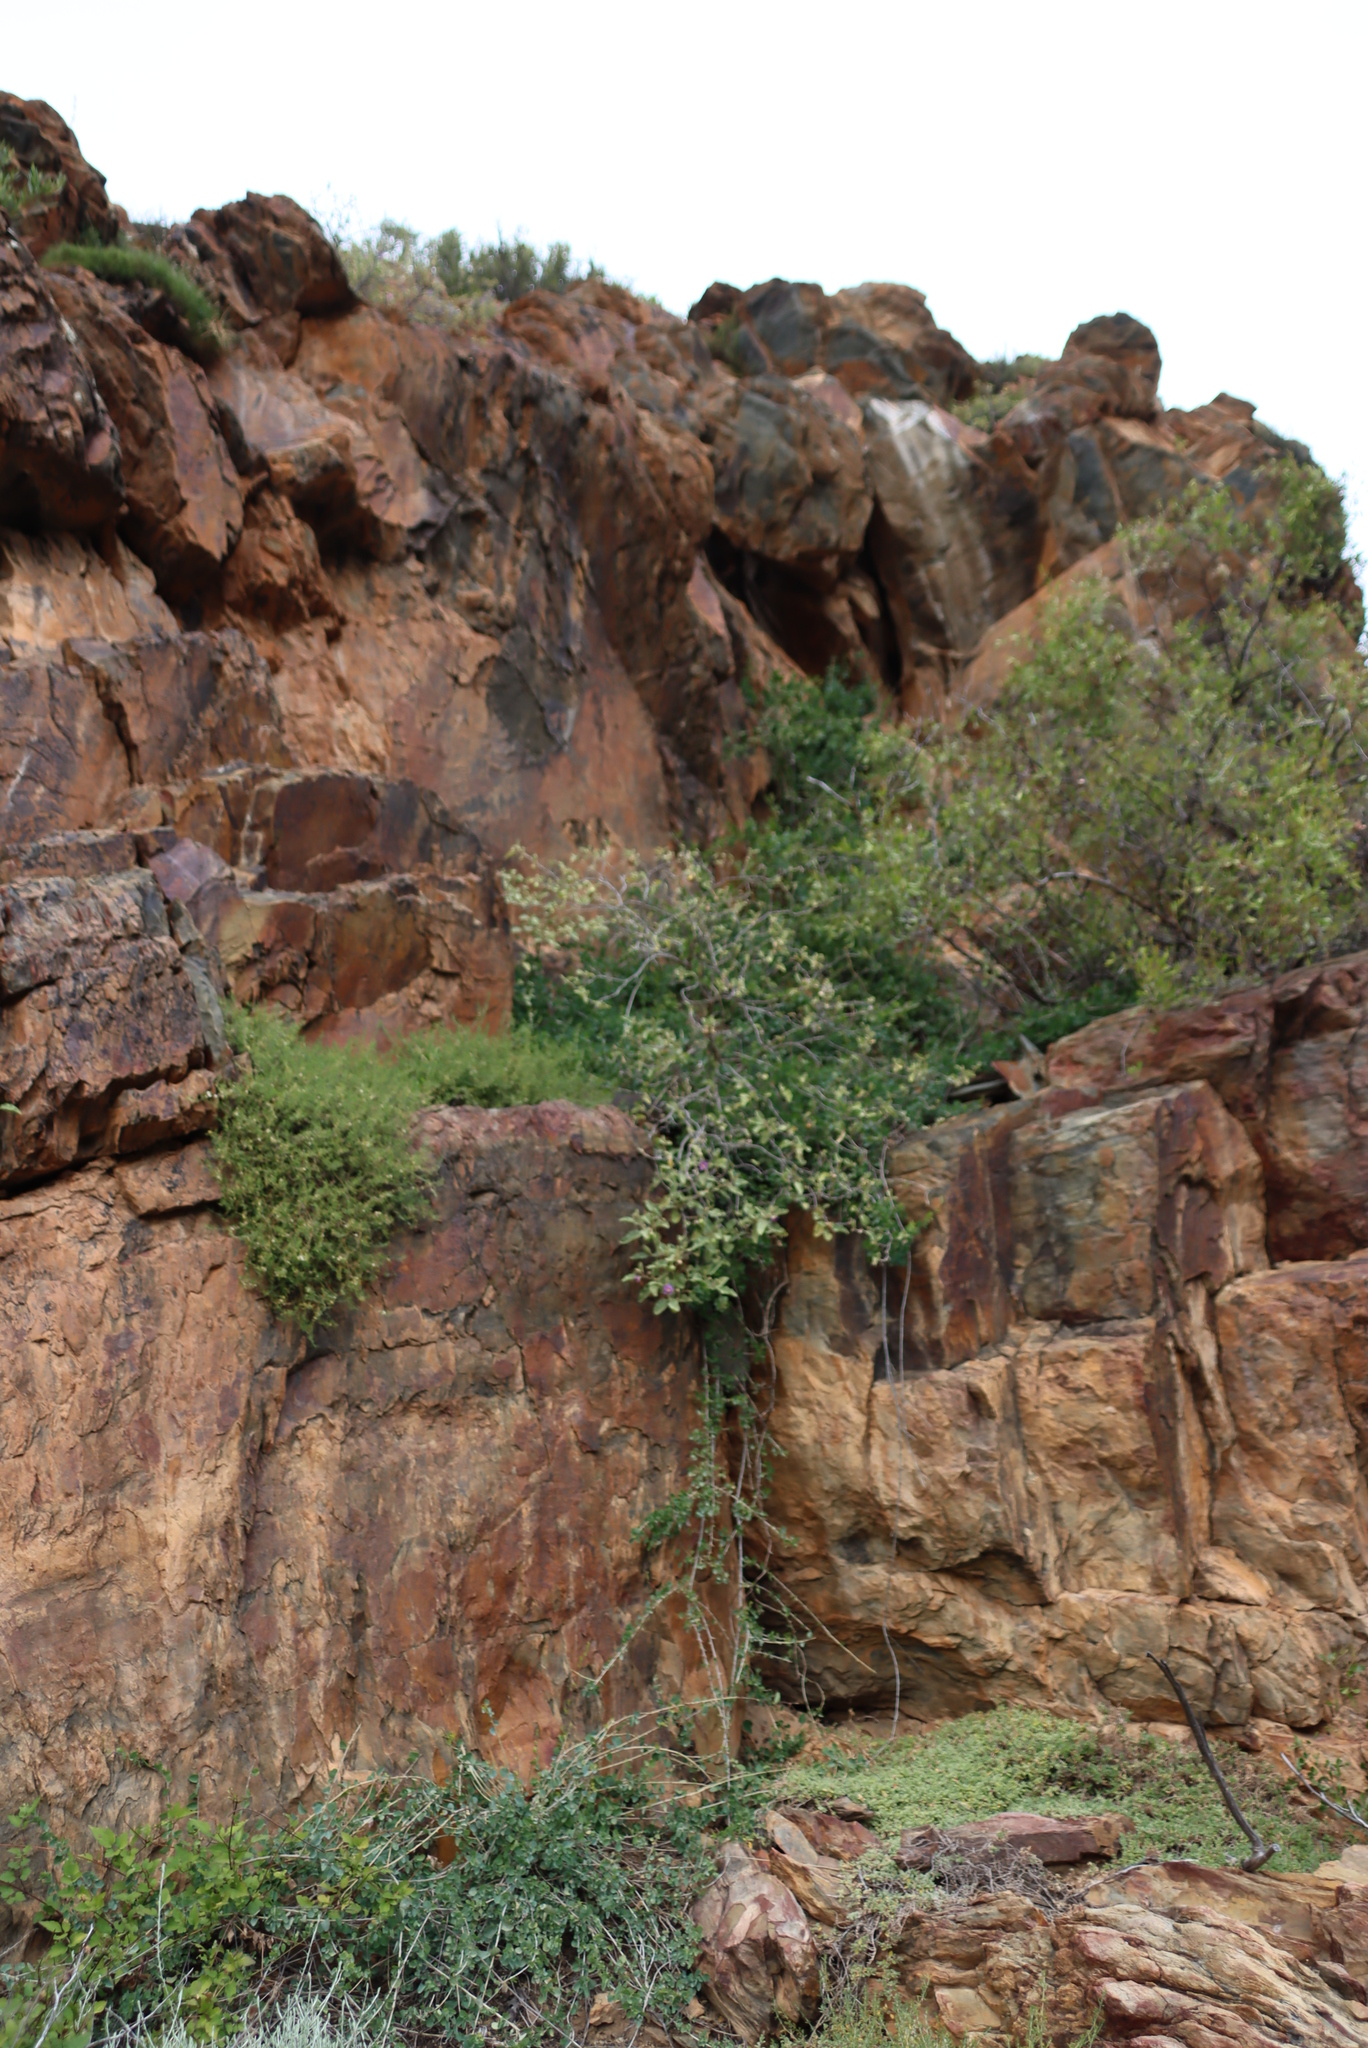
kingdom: Plantae
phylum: Tracheophyta
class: Magnoliopsida
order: Solanales
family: Solanaceae
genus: Solanum
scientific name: Solanum tomentosum
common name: Wild aubergine
